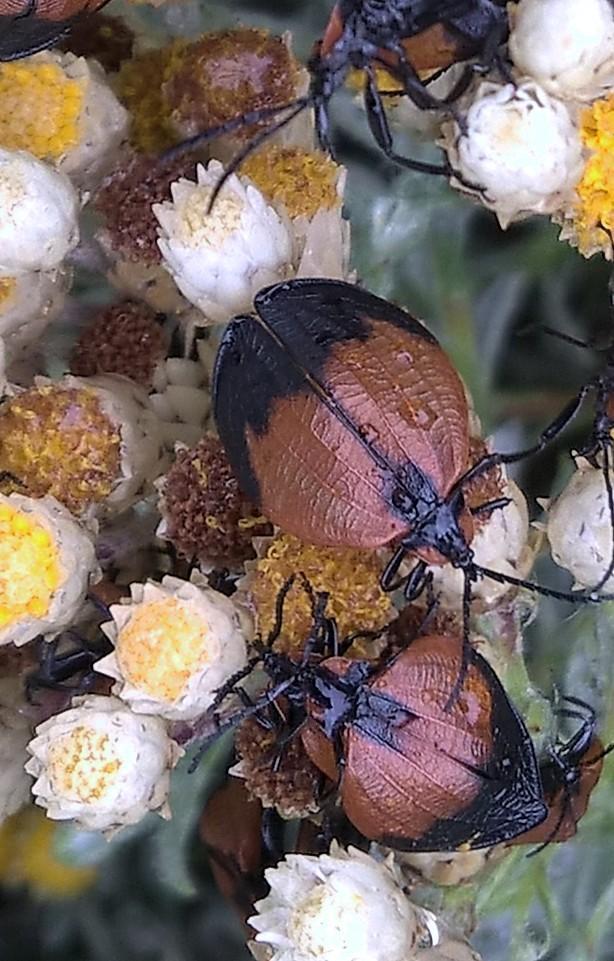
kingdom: Animalia
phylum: Arthropoda
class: Insecta
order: Coleoptera
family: Lycidae
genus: Lycus
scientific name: Lycus
